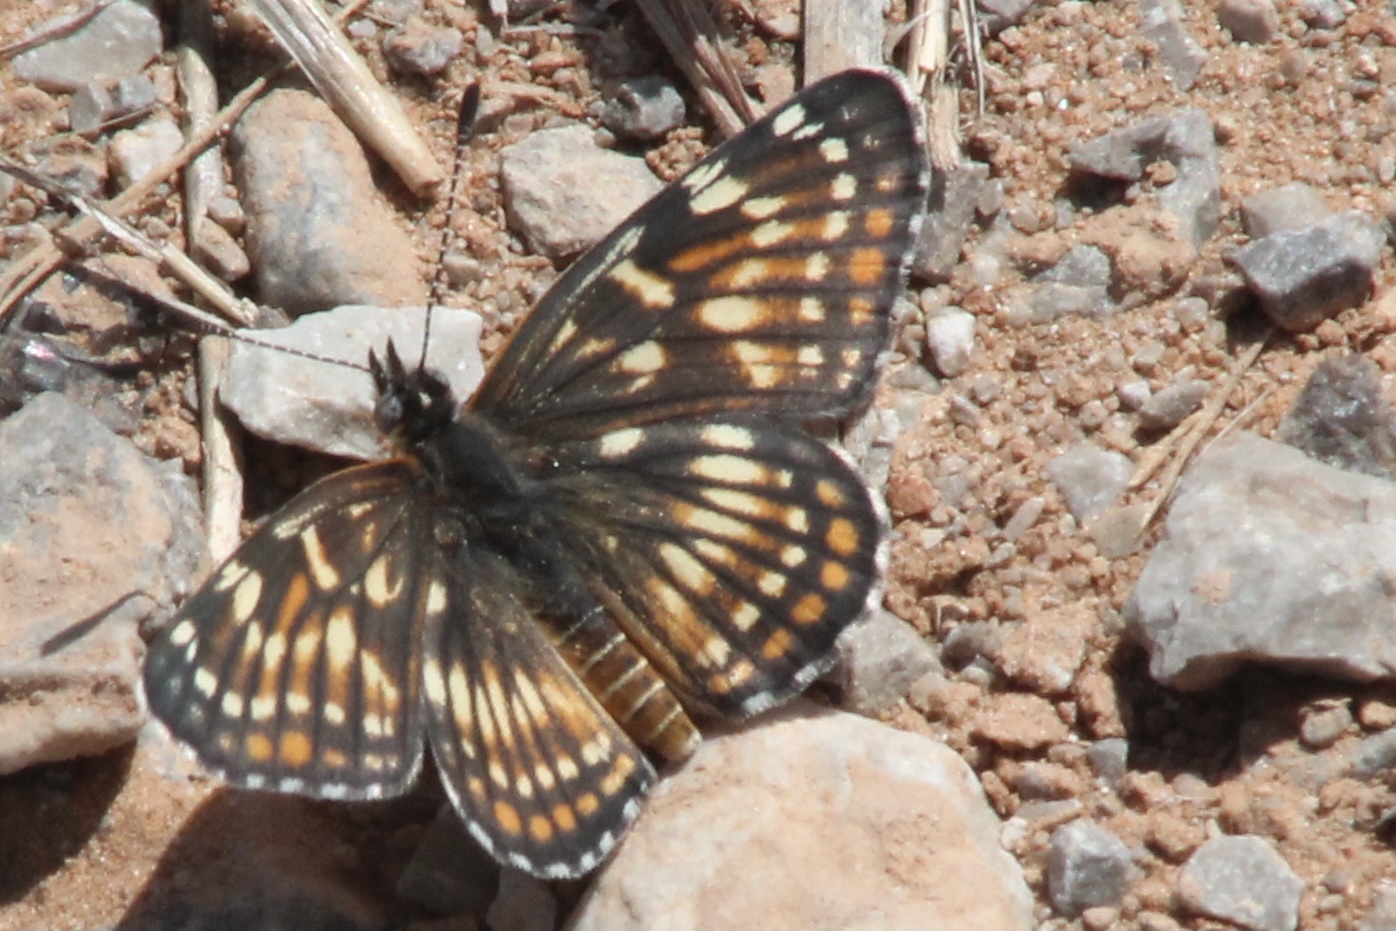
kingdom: Animalia
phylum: Arthropoda
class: Insecta
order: Lepidoptera
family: Nymphalidae
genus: Thessalia
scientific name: Thessalia leanira
